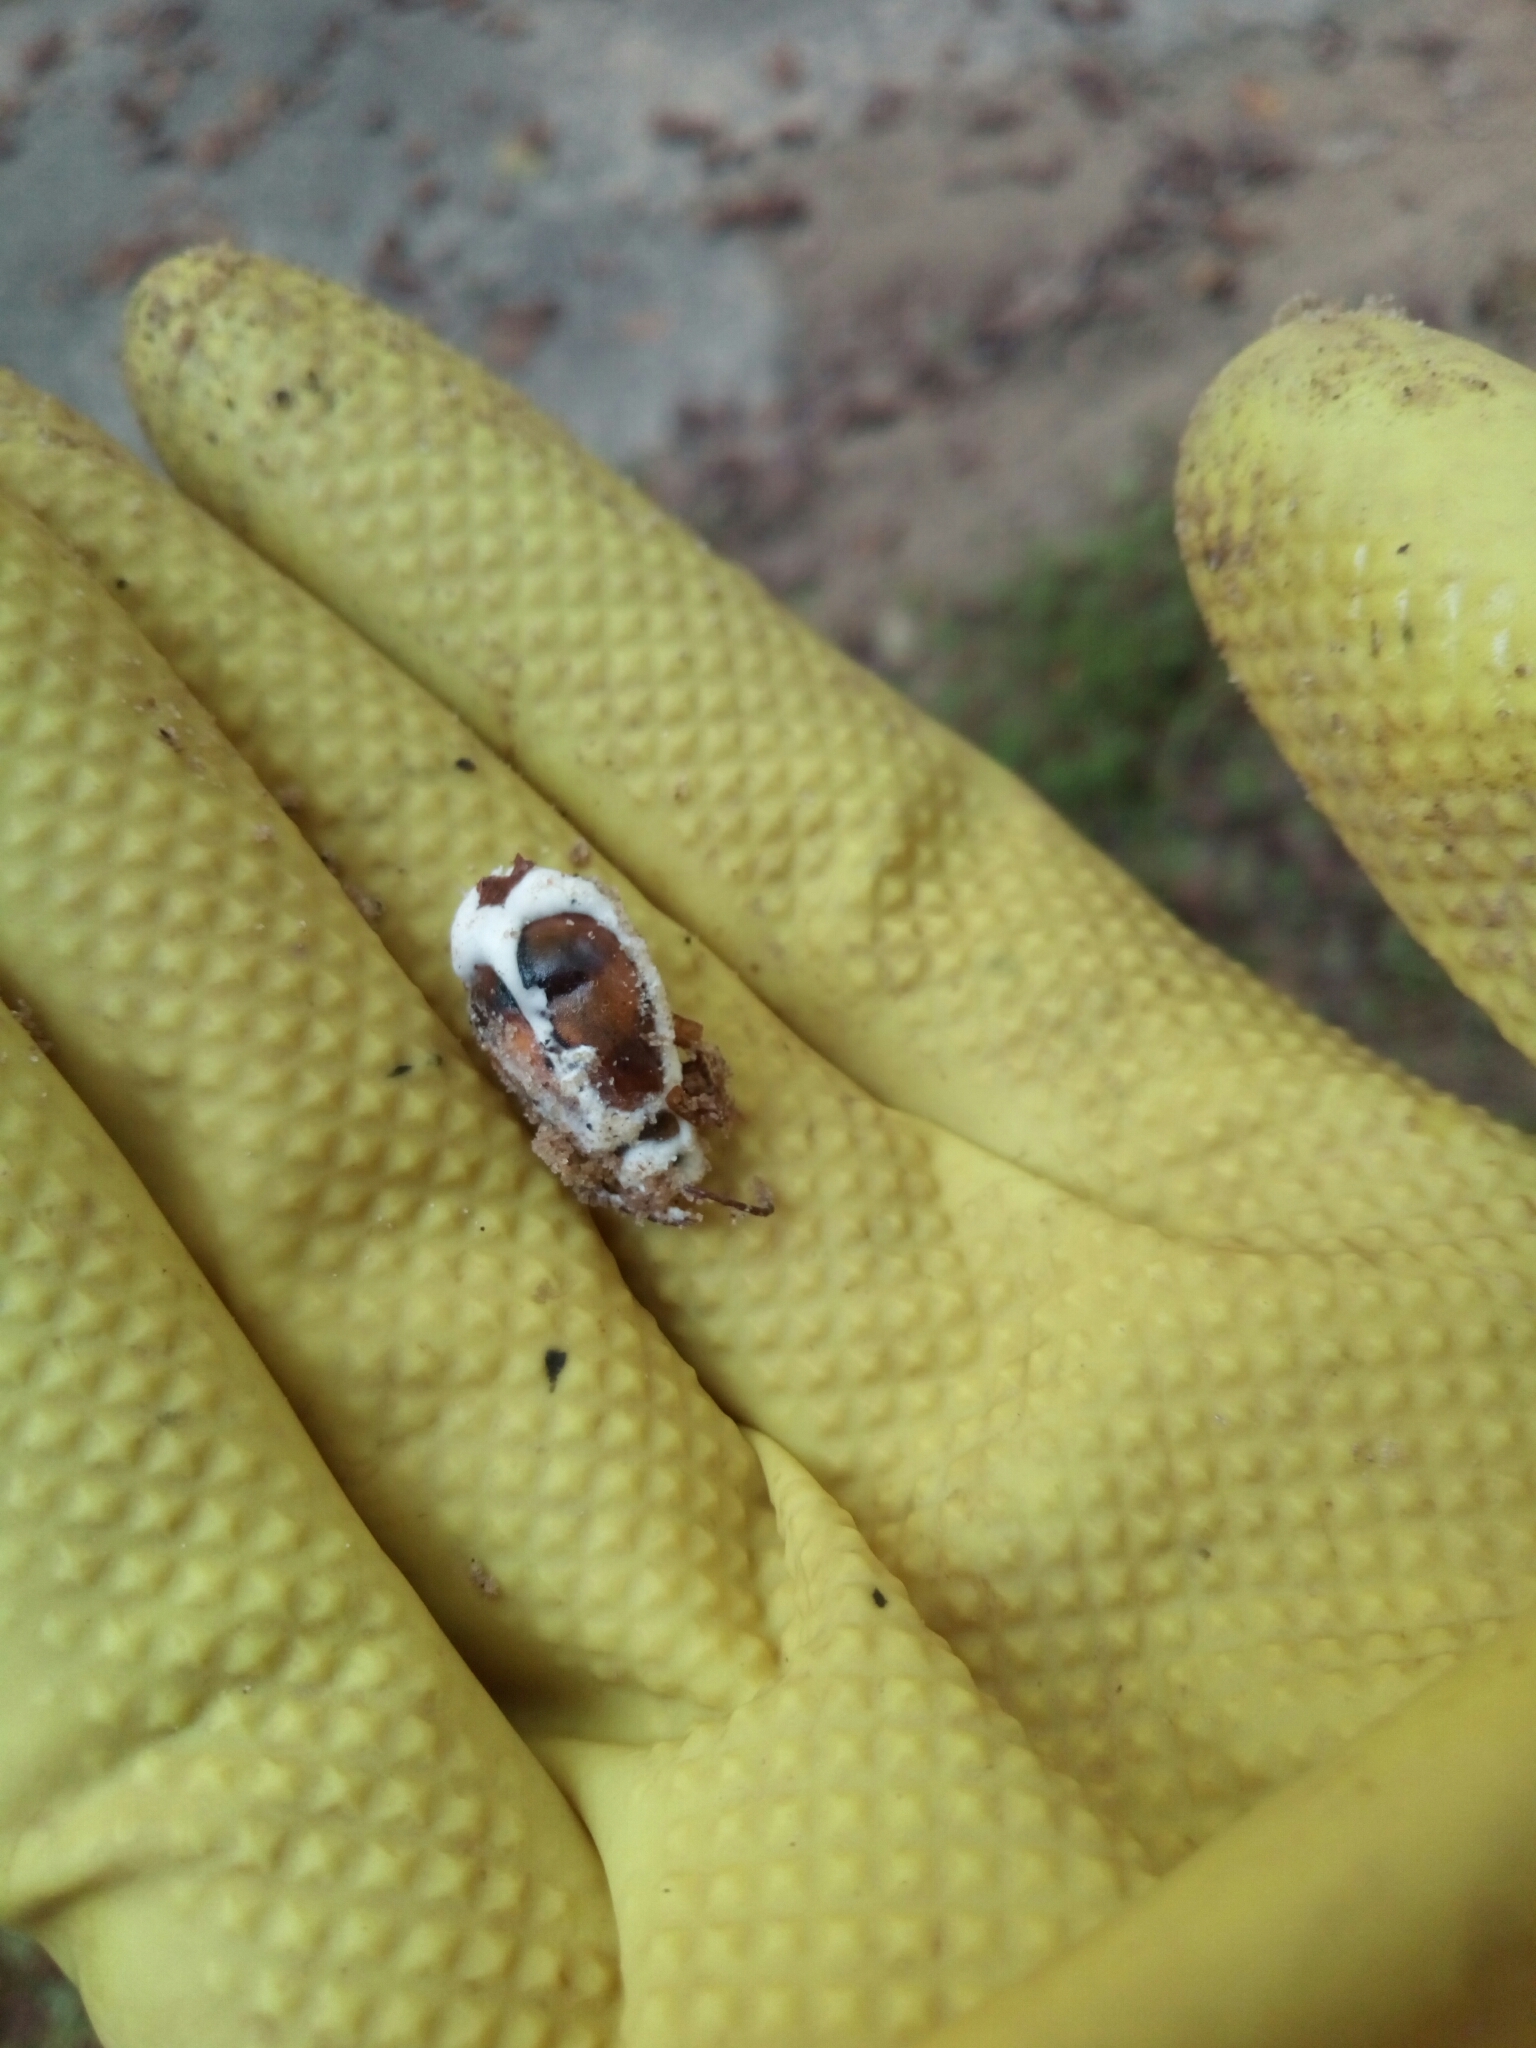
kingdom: Fungi
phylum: Ascomycota
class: Sordariomycetes
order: Hypocreales
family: Cordycipitaceae
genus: Beauveria
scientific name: Beauveria bassiana
